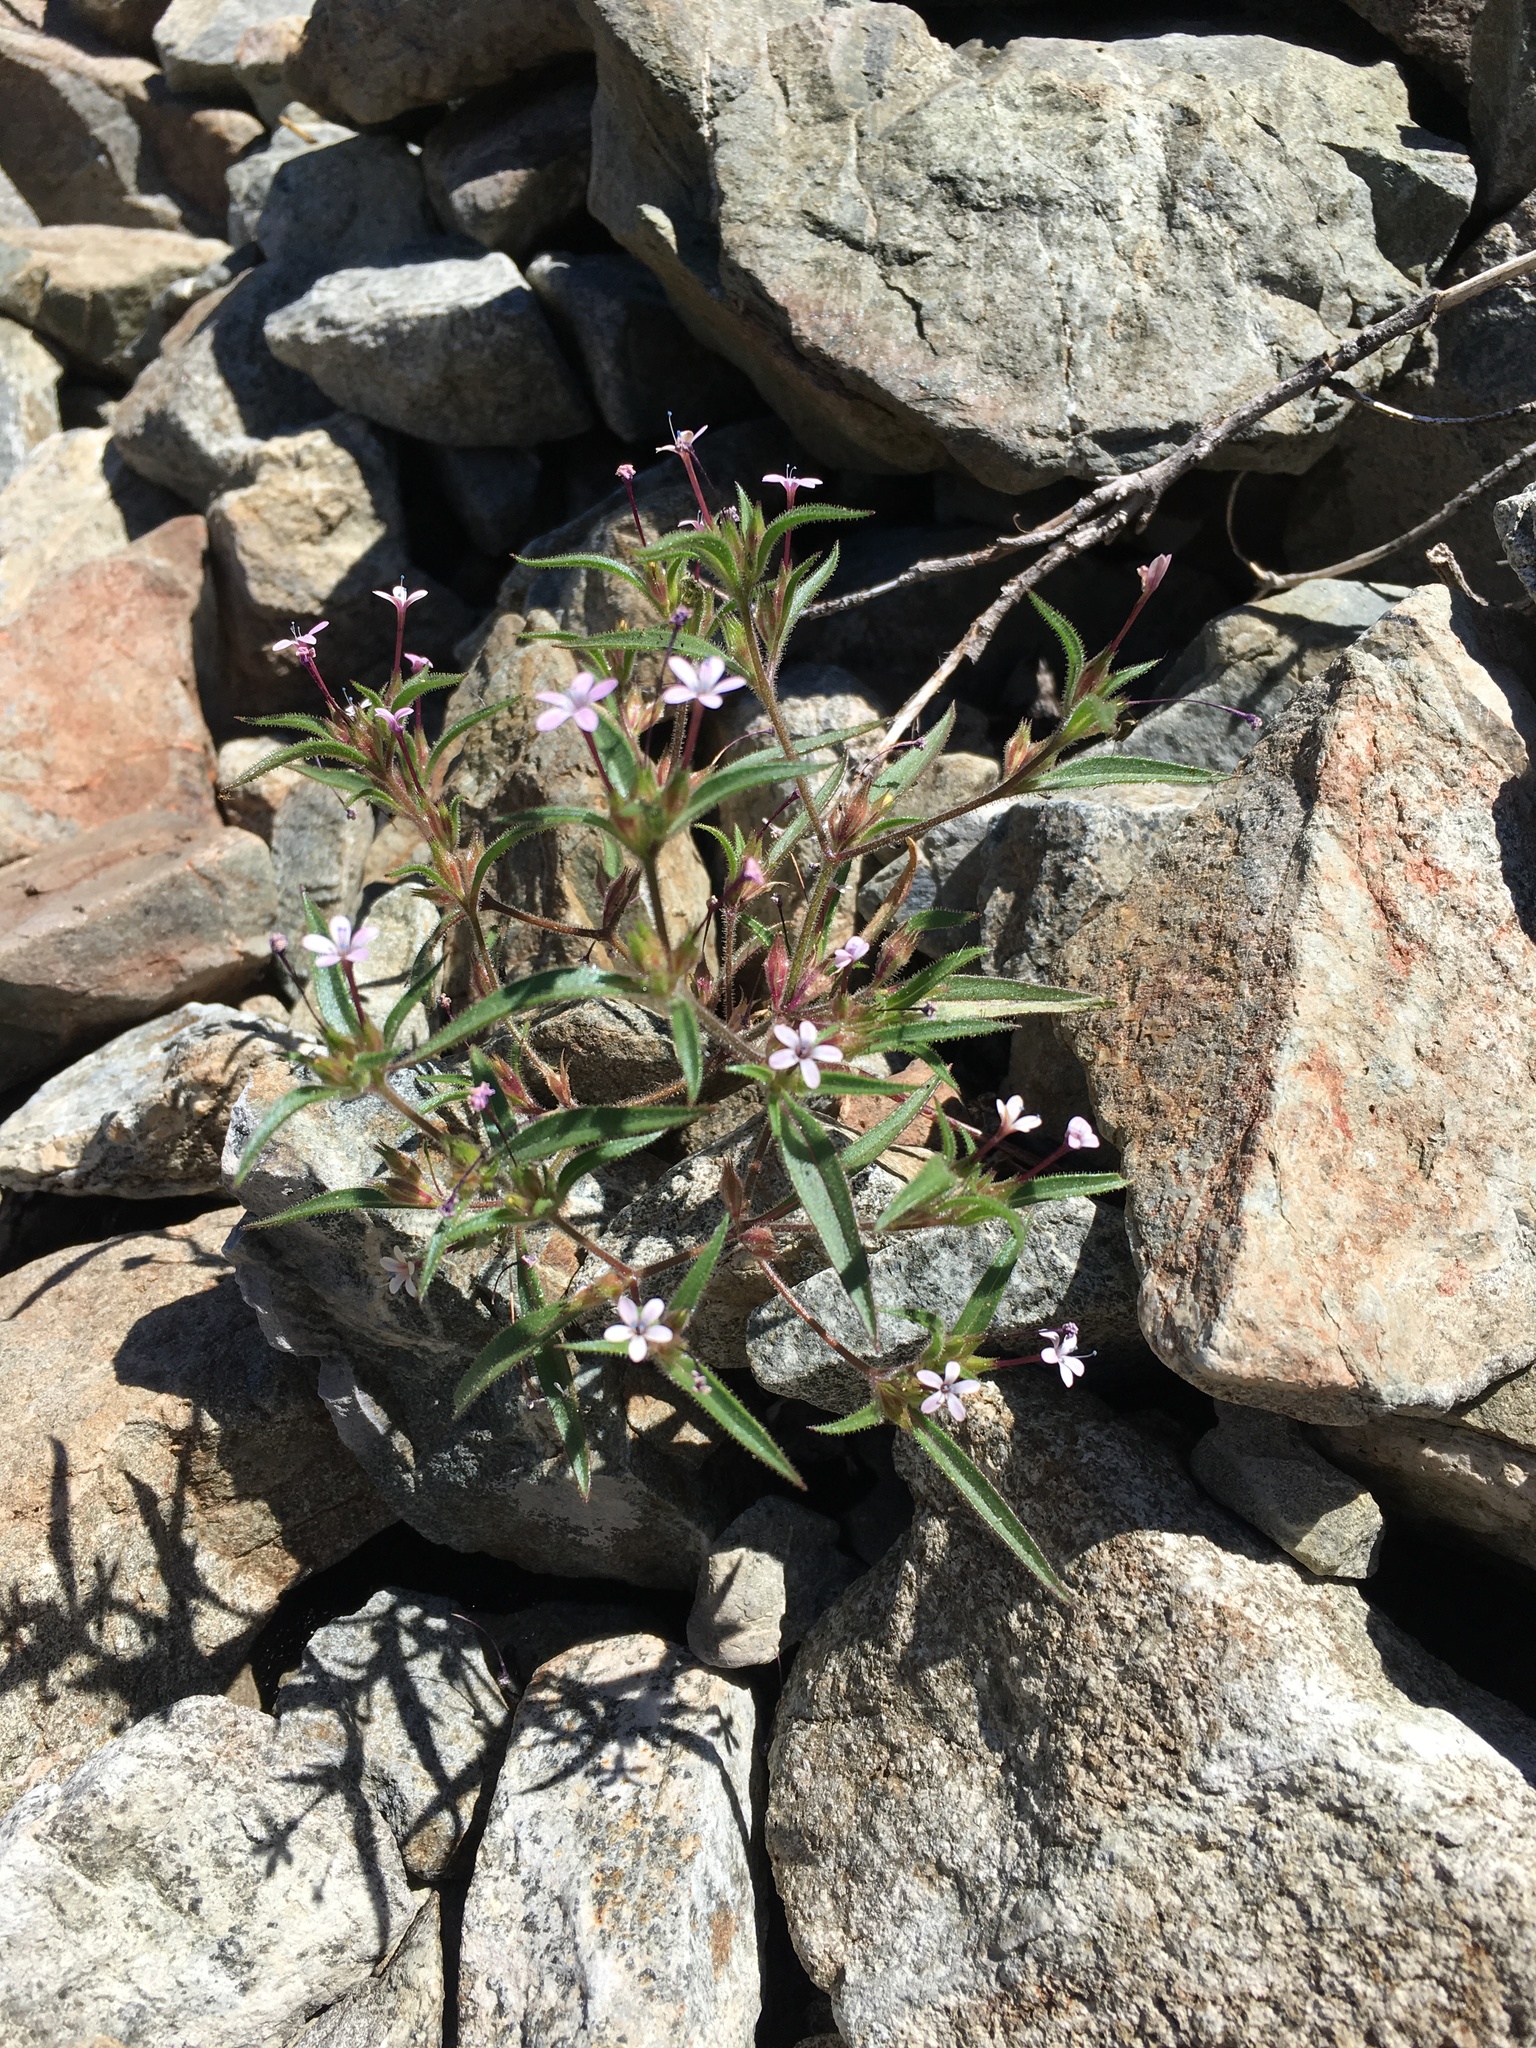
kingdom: Plantae
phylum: Tracheophyta
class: Magnoliopsida
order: Ericales
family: Polemoniaceae
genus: Collomia
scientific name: Collomia tracyi
